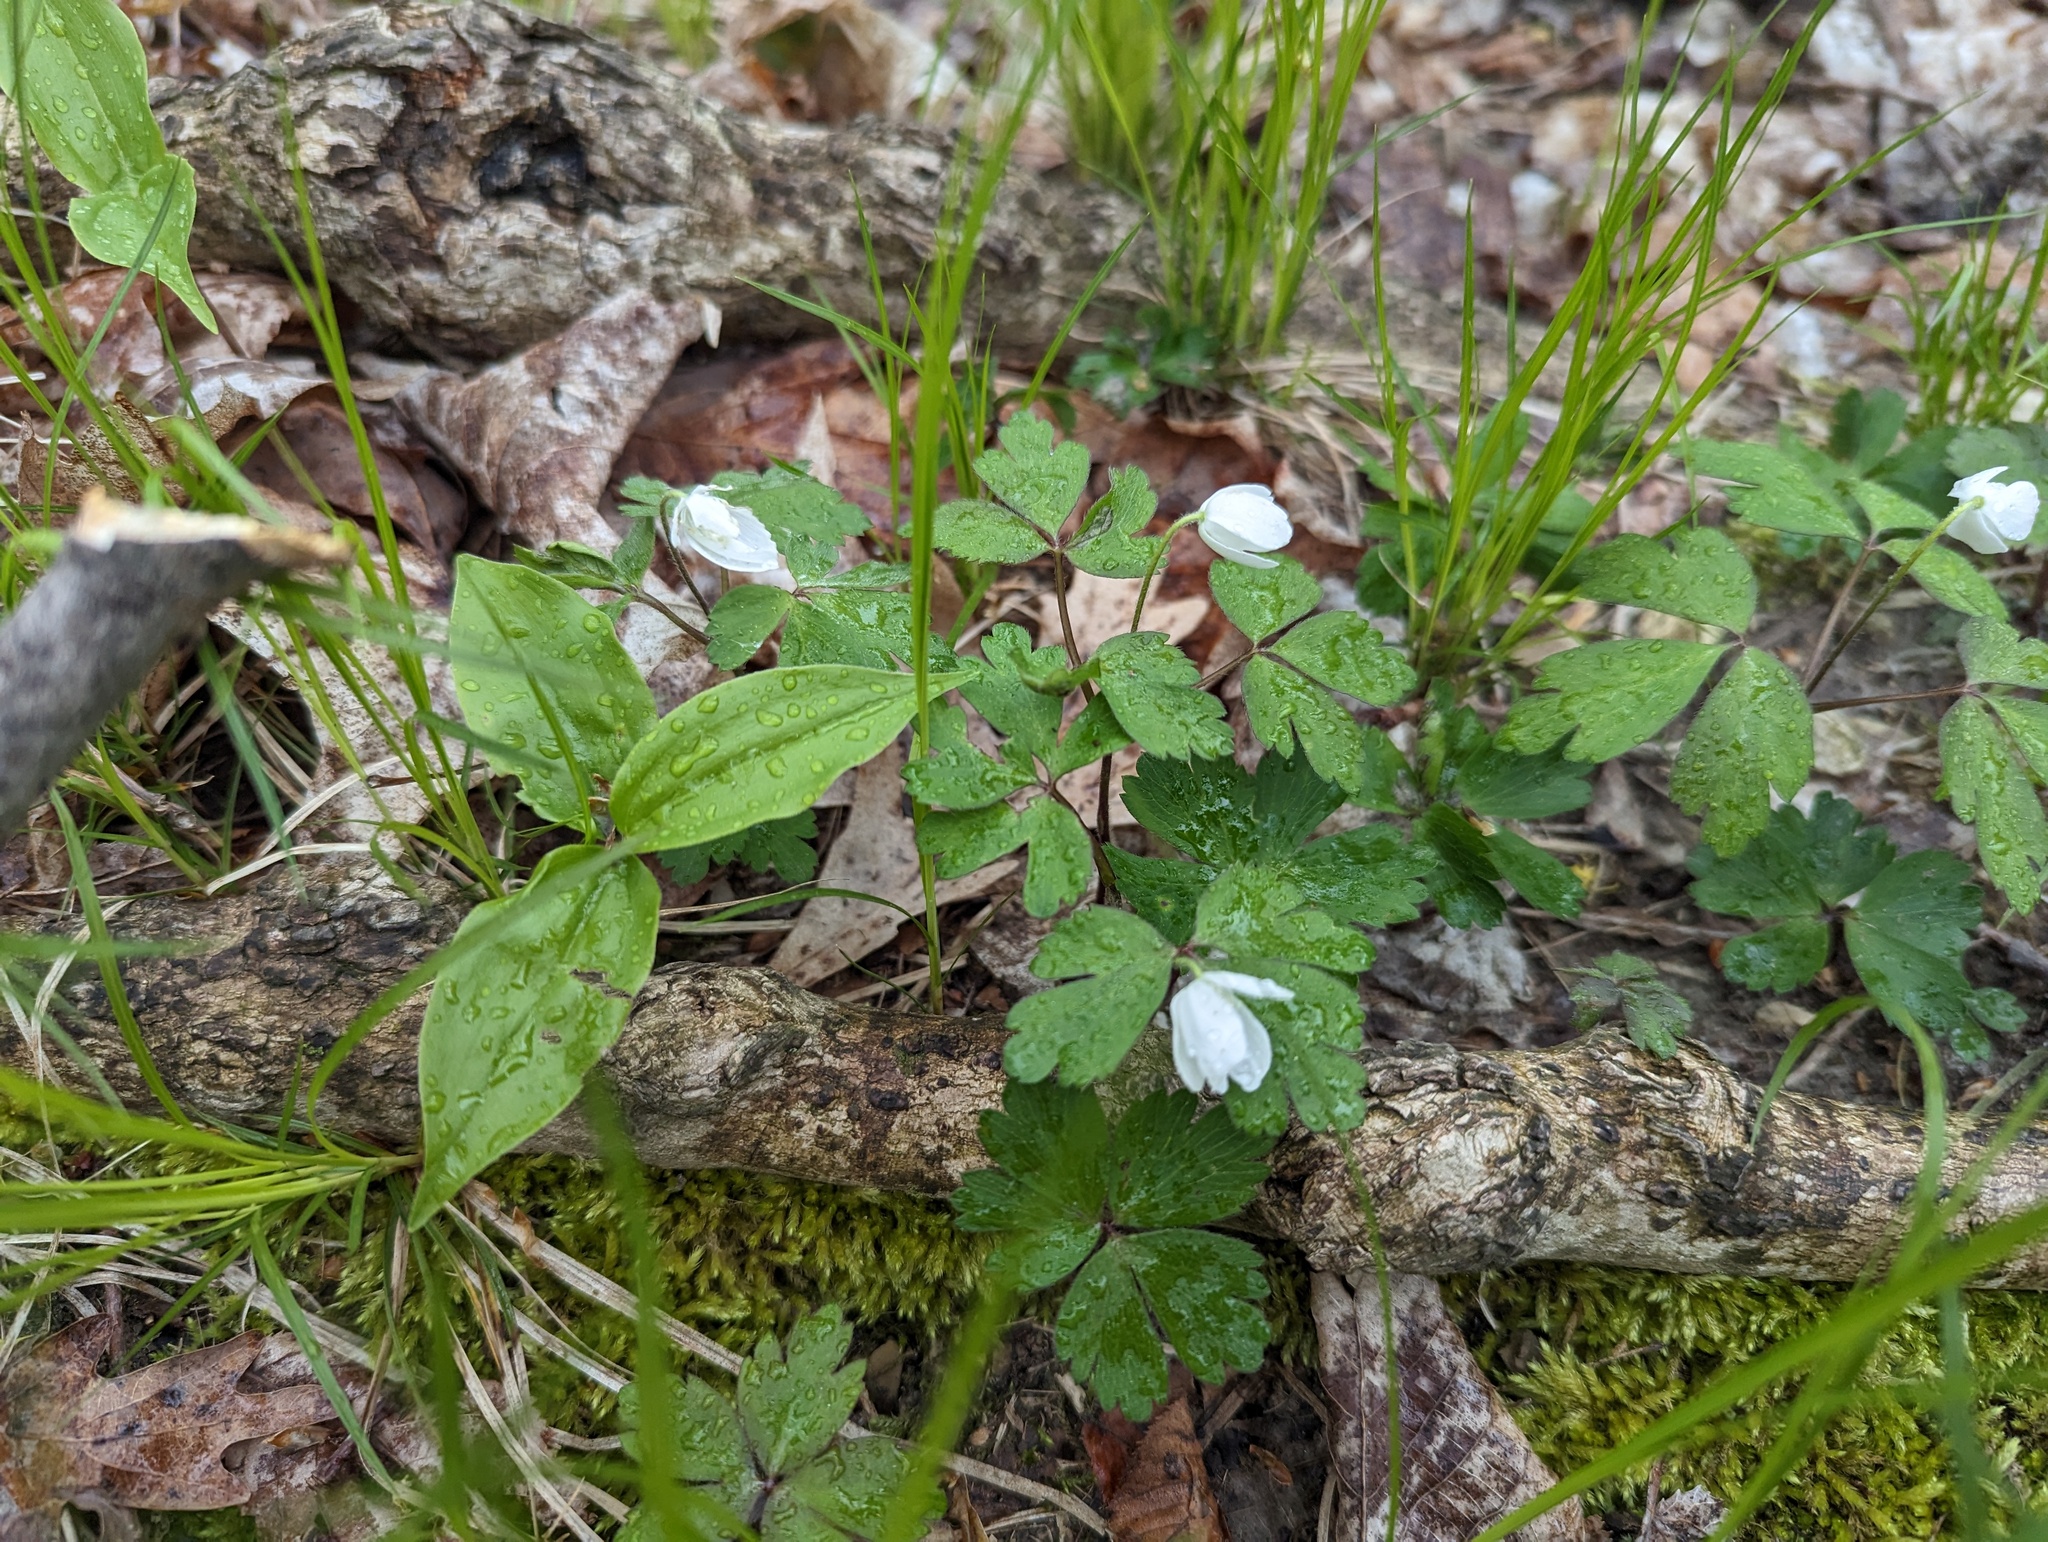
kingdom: Plantae
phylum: Tracheophyta
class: Magnoliopsida
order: Ranunculales
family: Ranunculaceae
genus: Anemone
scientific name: Anemone quinquefolia
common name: Wood anemone
